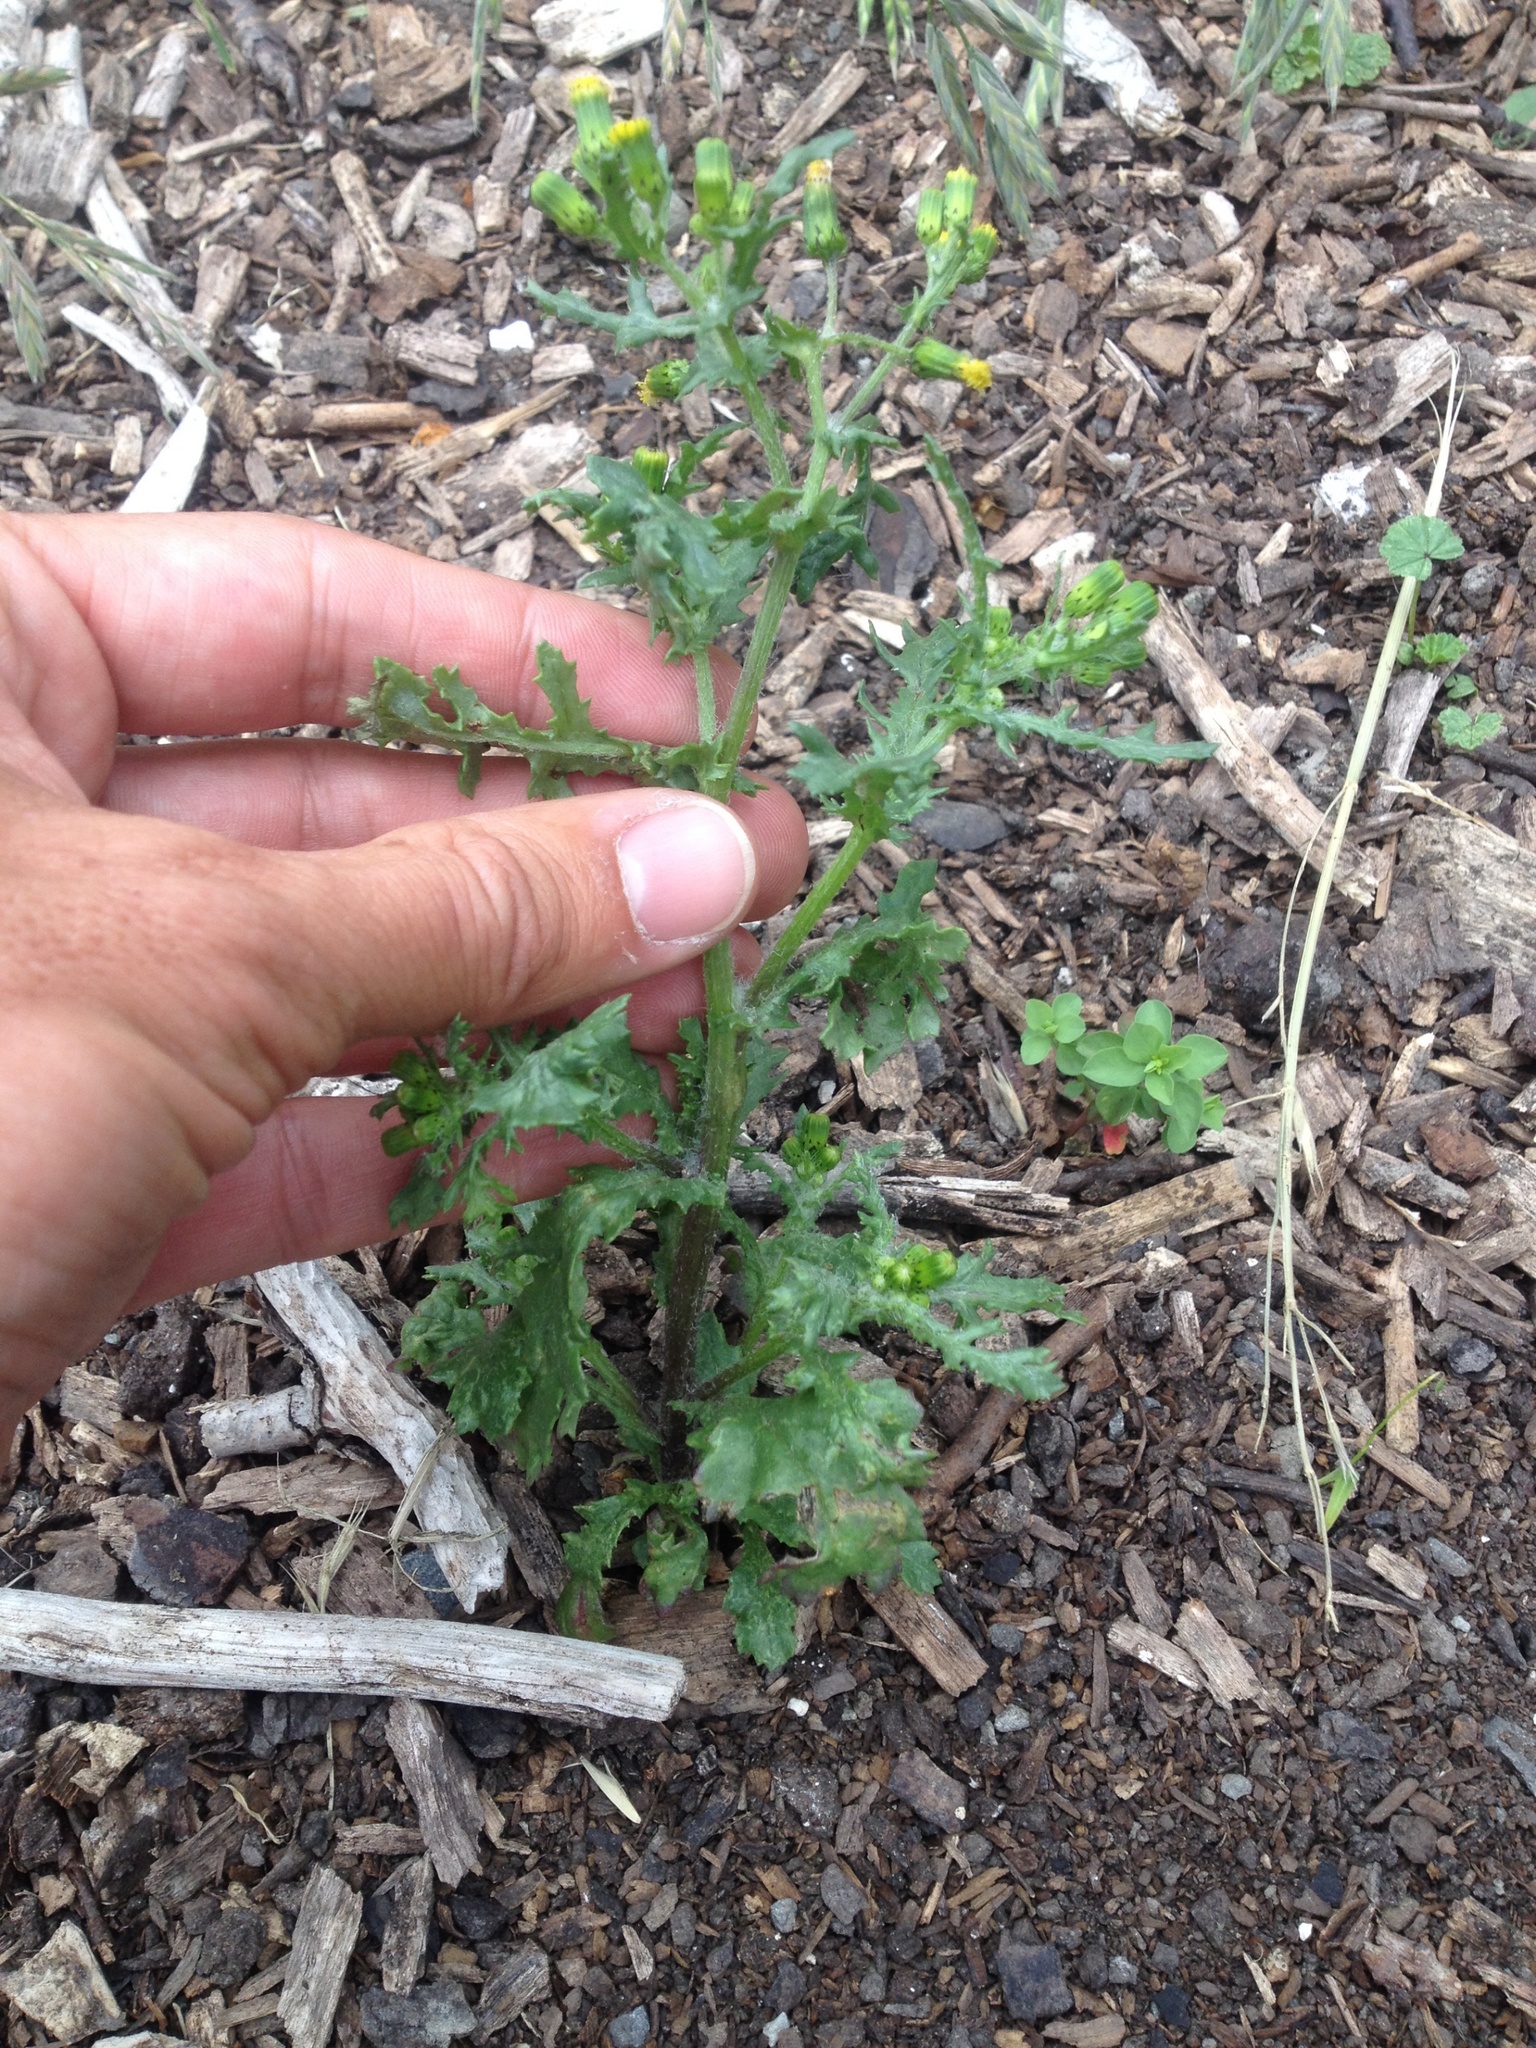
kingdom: Plantae
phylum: Tracheophyta
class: Magnoliopsida
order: Asterales
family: Asteraceae
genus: Senecio
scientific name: Senecio vulgaris
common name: Old-man-in-the-spring
